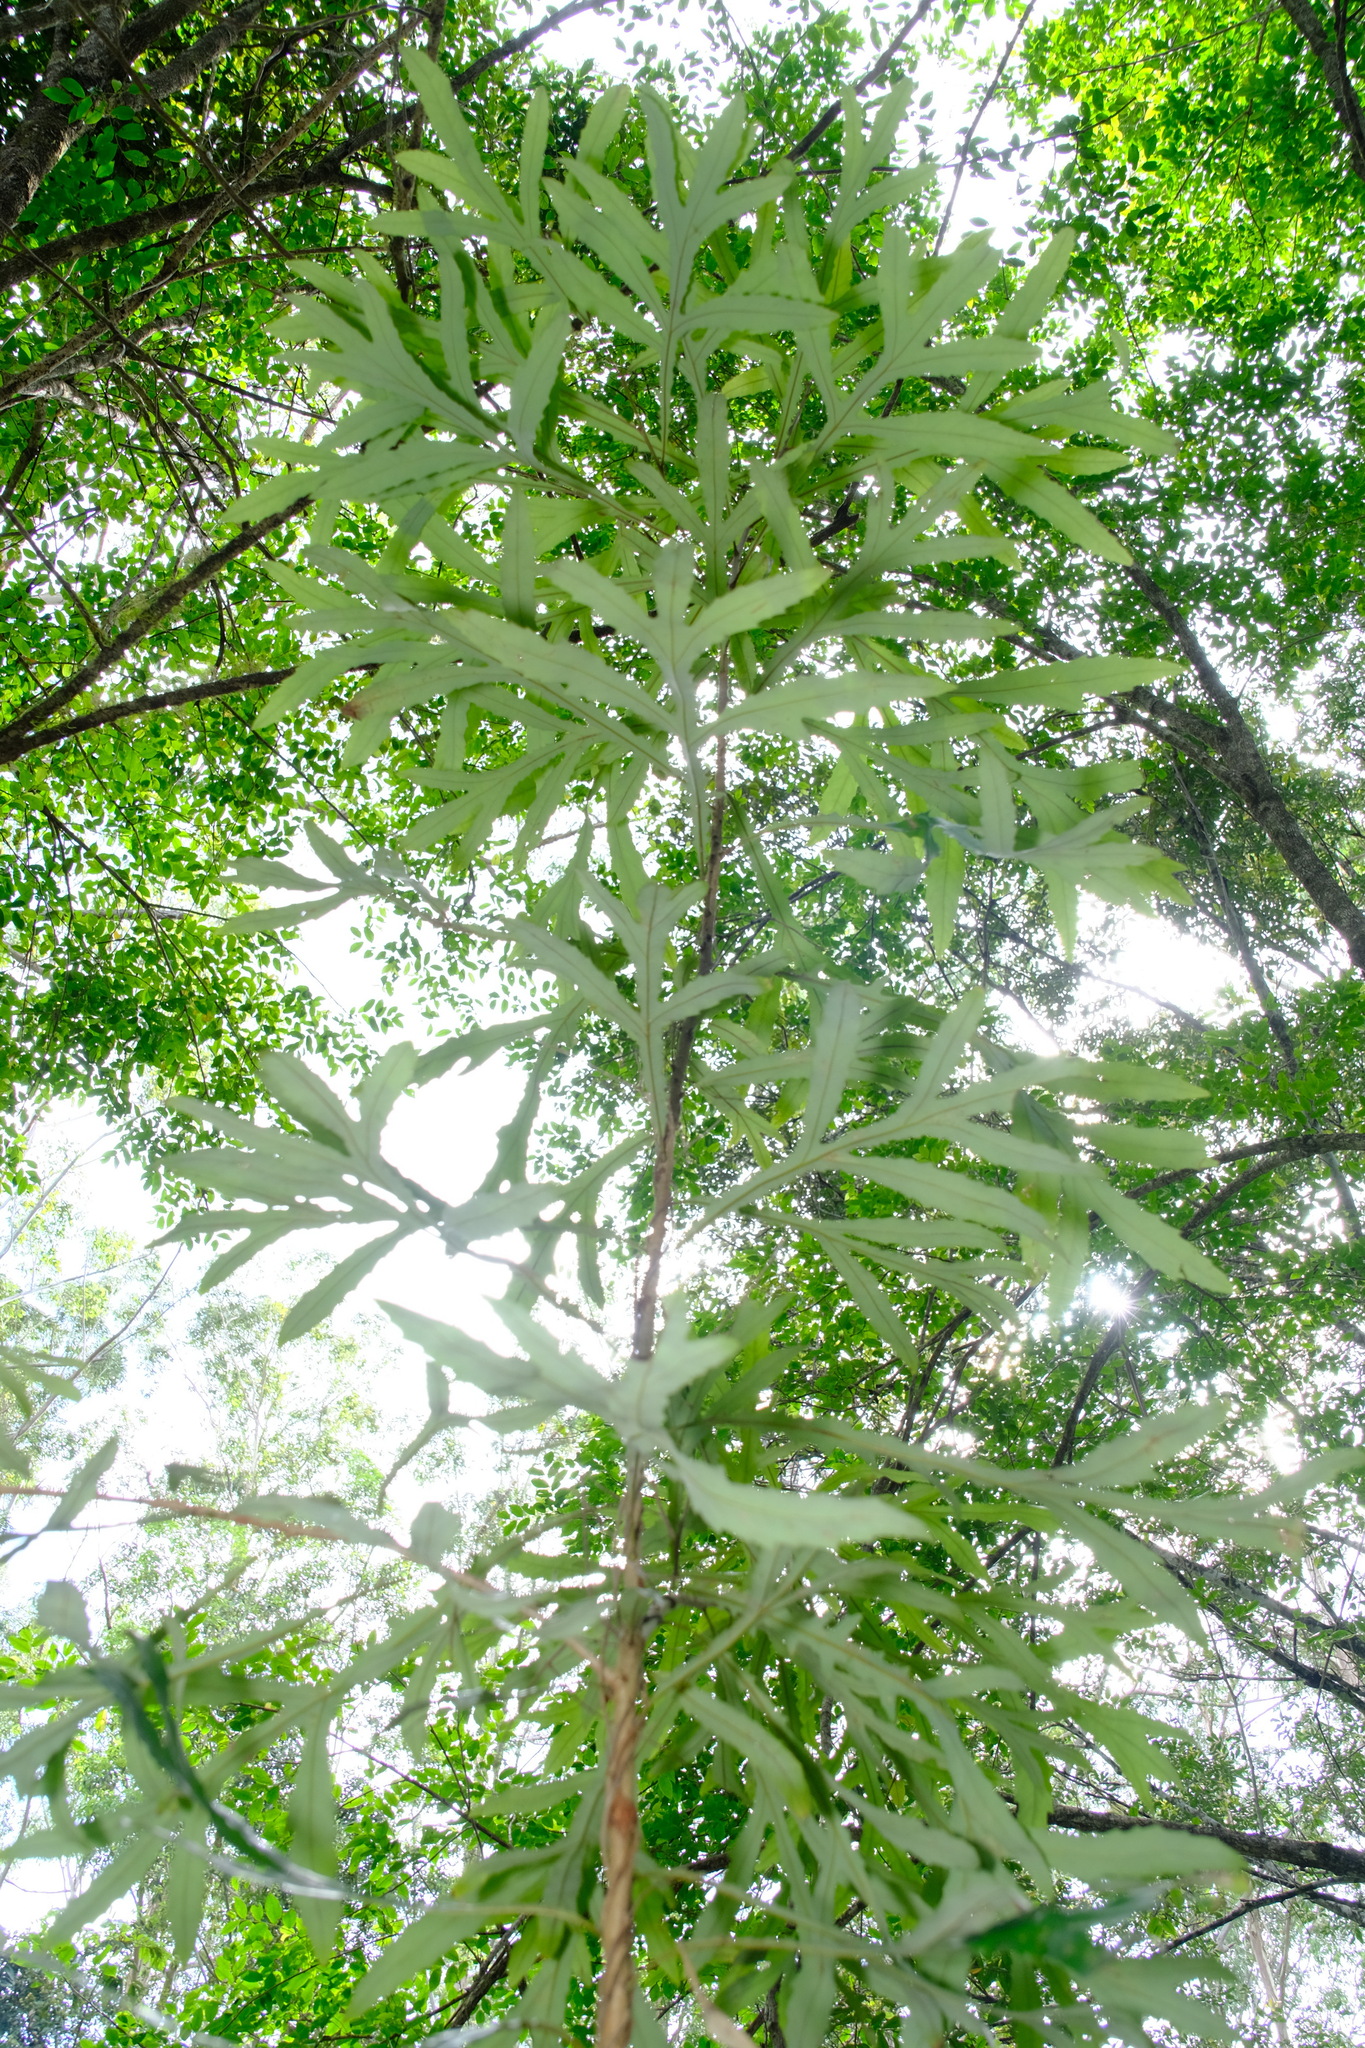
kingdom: Plantae
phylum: Tracheophyta
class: Magnoliopsida
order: Proteales
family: Proteaceae
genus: Orites
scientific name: Orites excelsus
